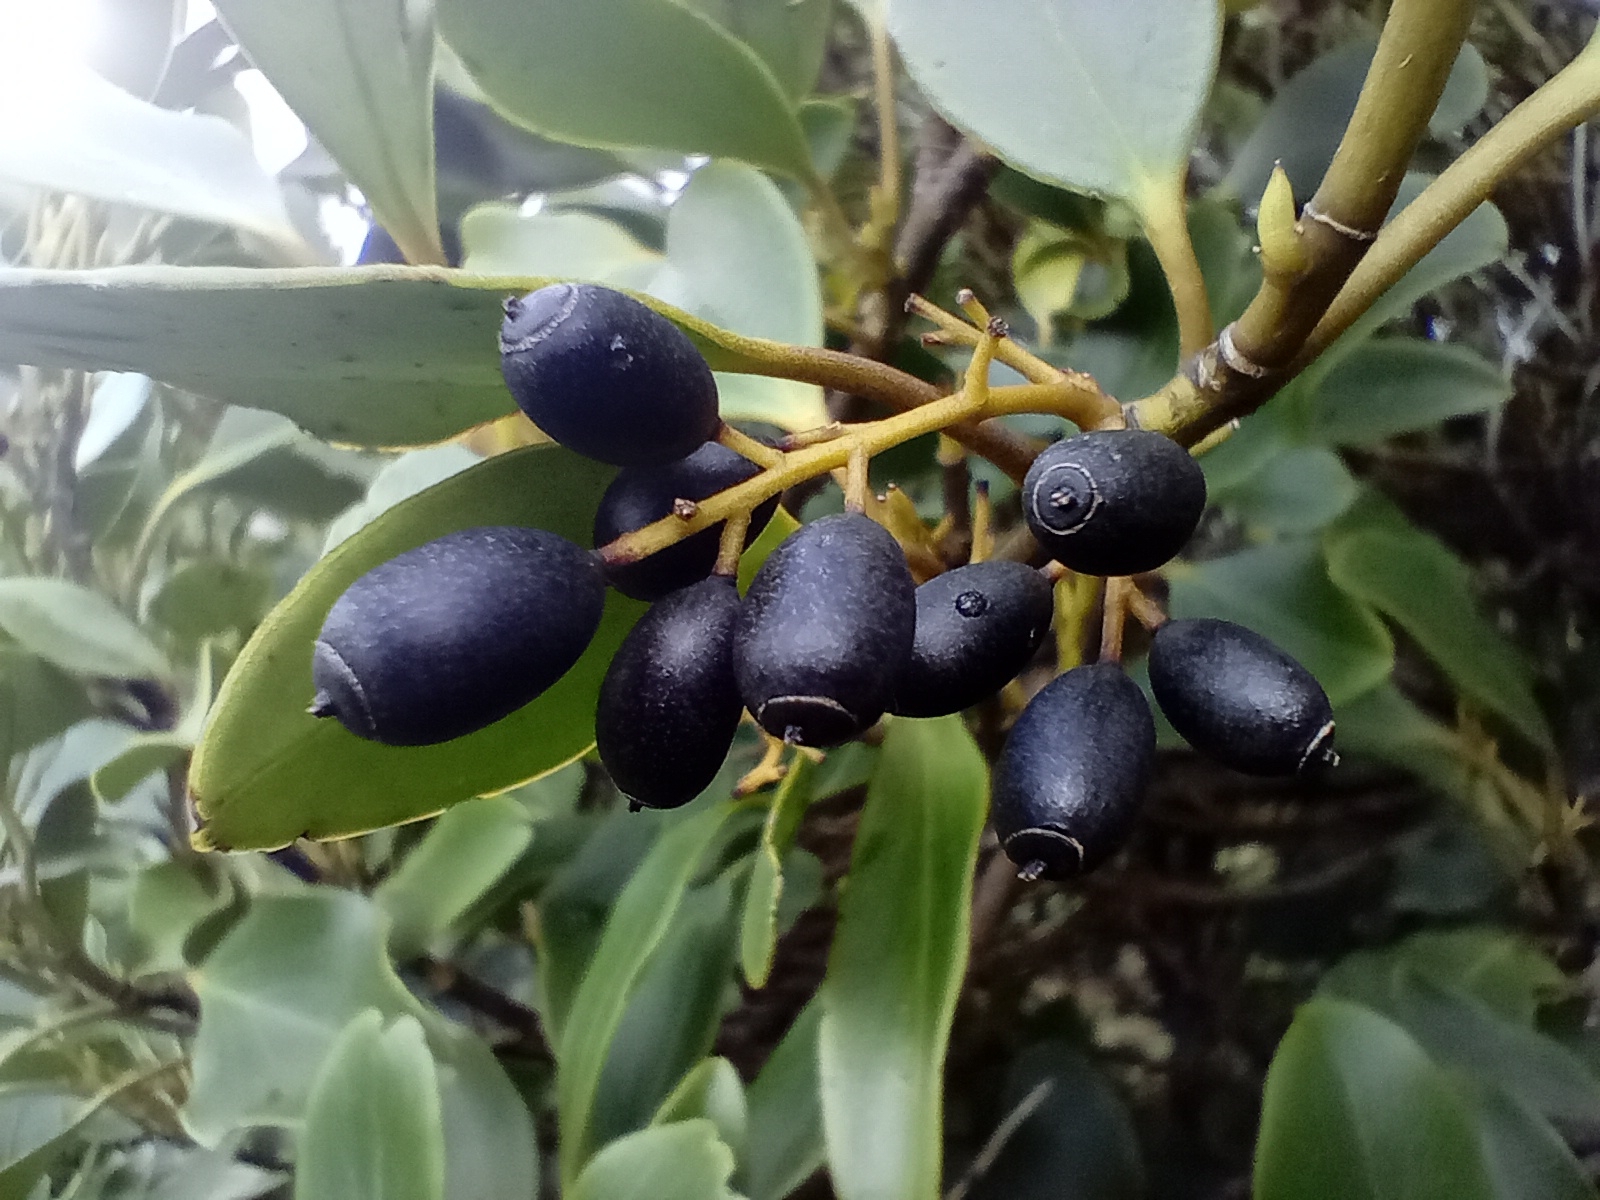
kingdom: Plantae
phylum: Tracheophyta
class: Magnoliopsida
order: Apiales
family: Griseliniaceae
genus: Griselinia
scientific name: Griselinia littoralis
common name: New zealand broadleaf
